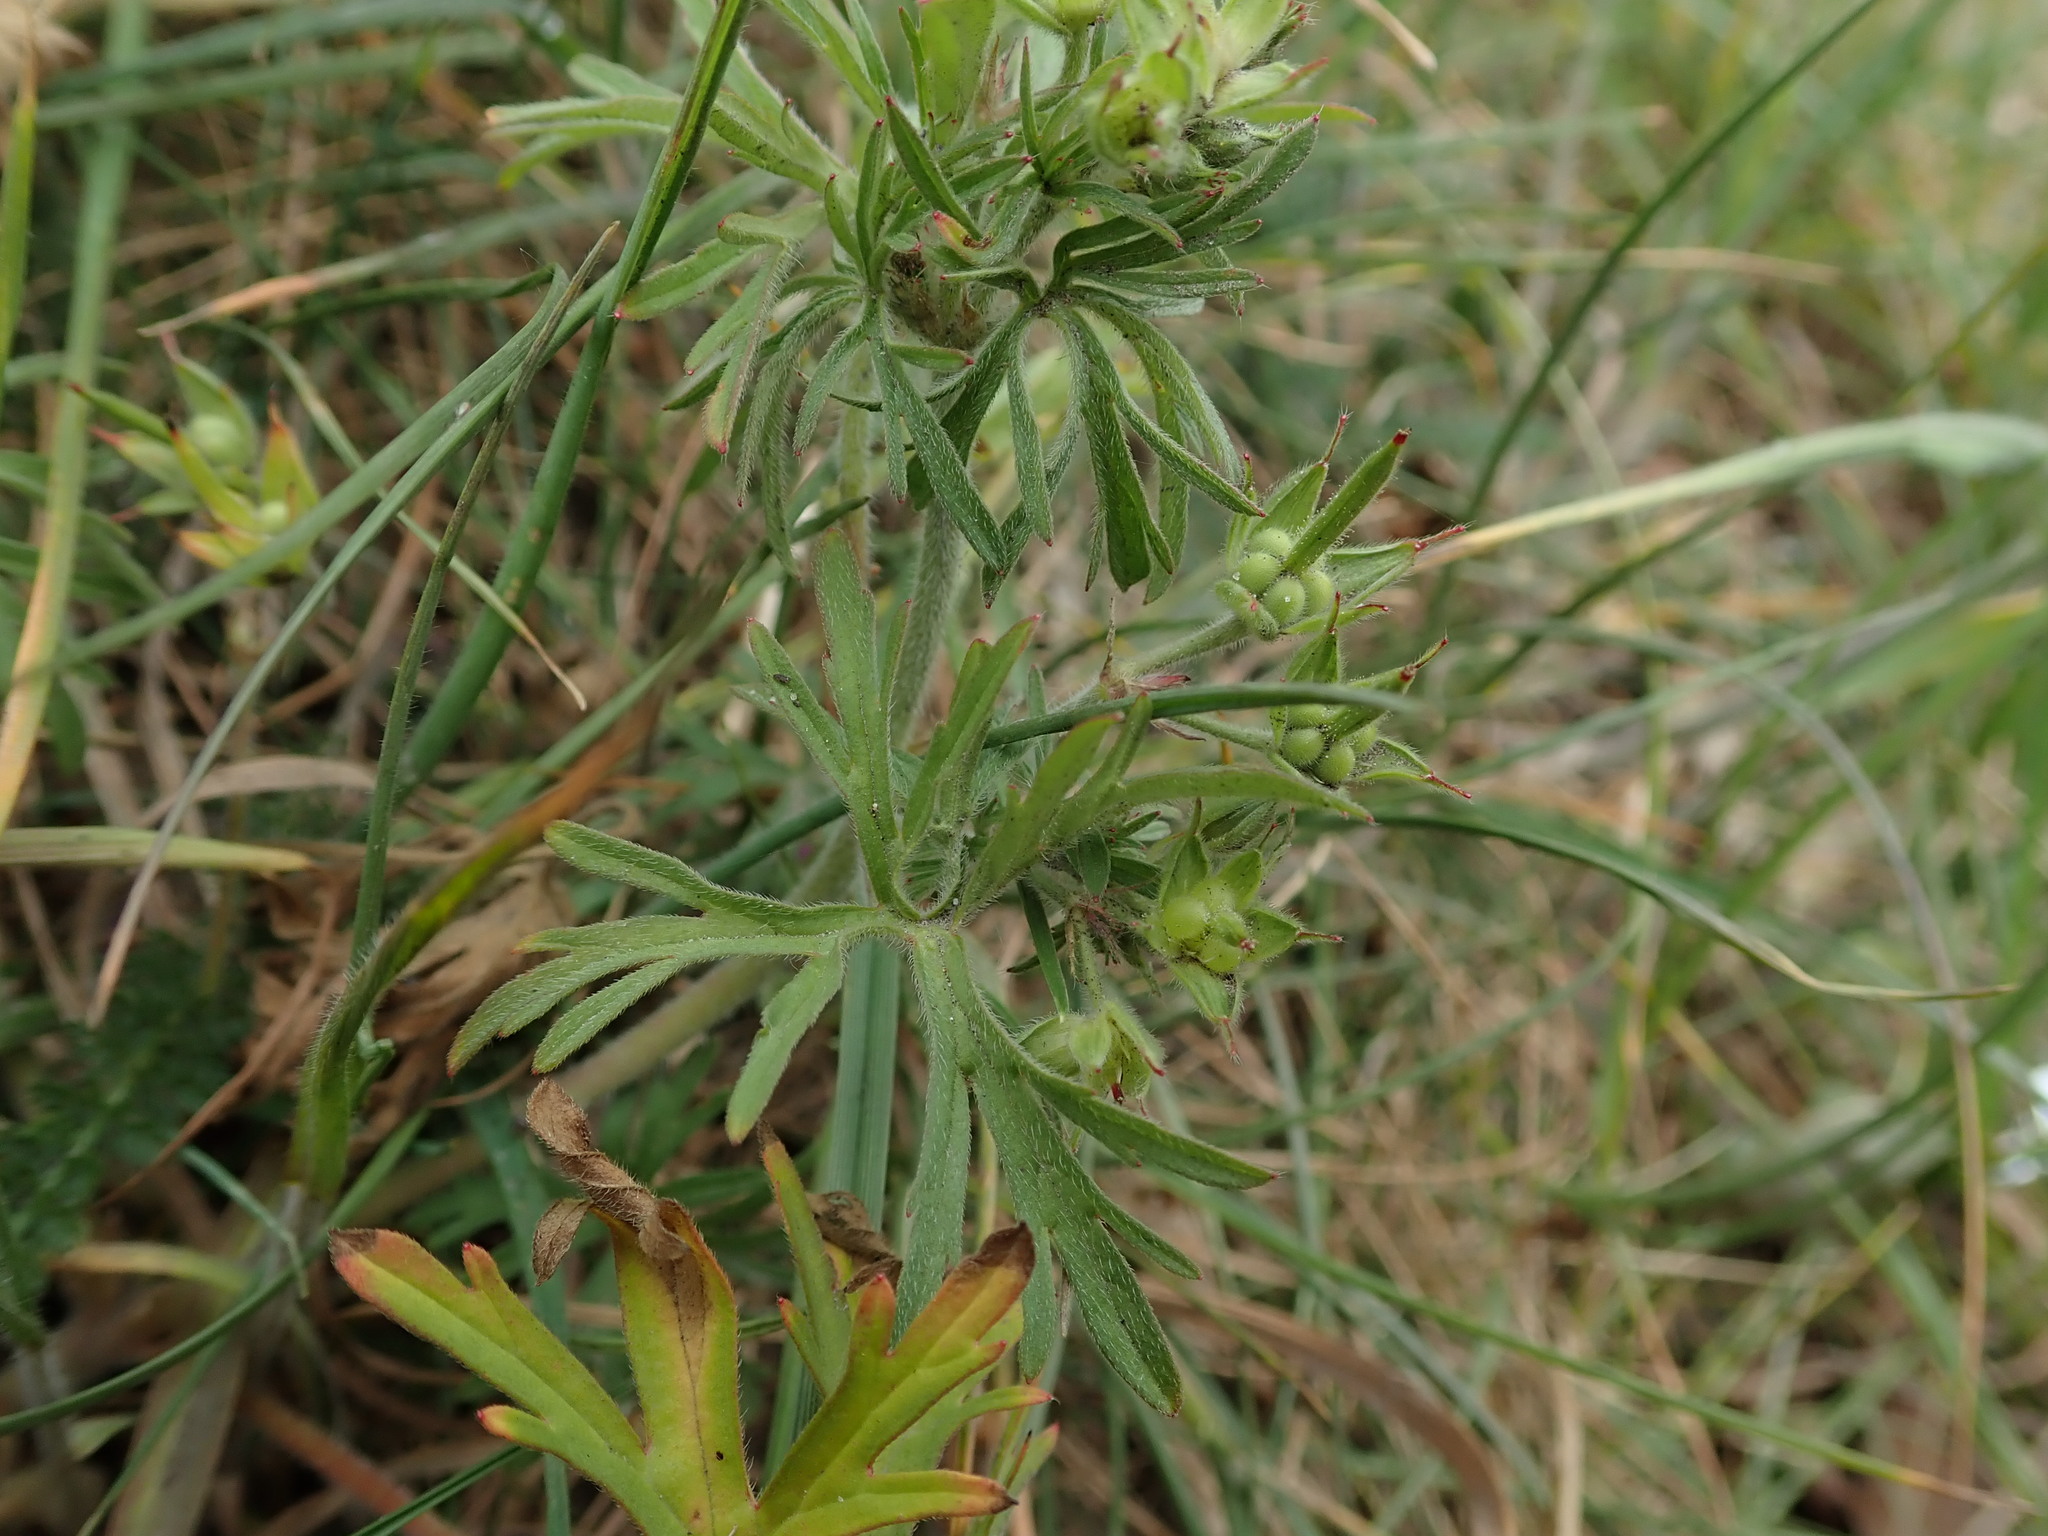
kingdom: Plantae
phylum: Tracheophyta
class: Magnoliopsida
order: Geraniales
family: Geraniaceae
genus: Geranium
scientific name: Geranium dissectum
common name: Cut-leaved crane's-bill
